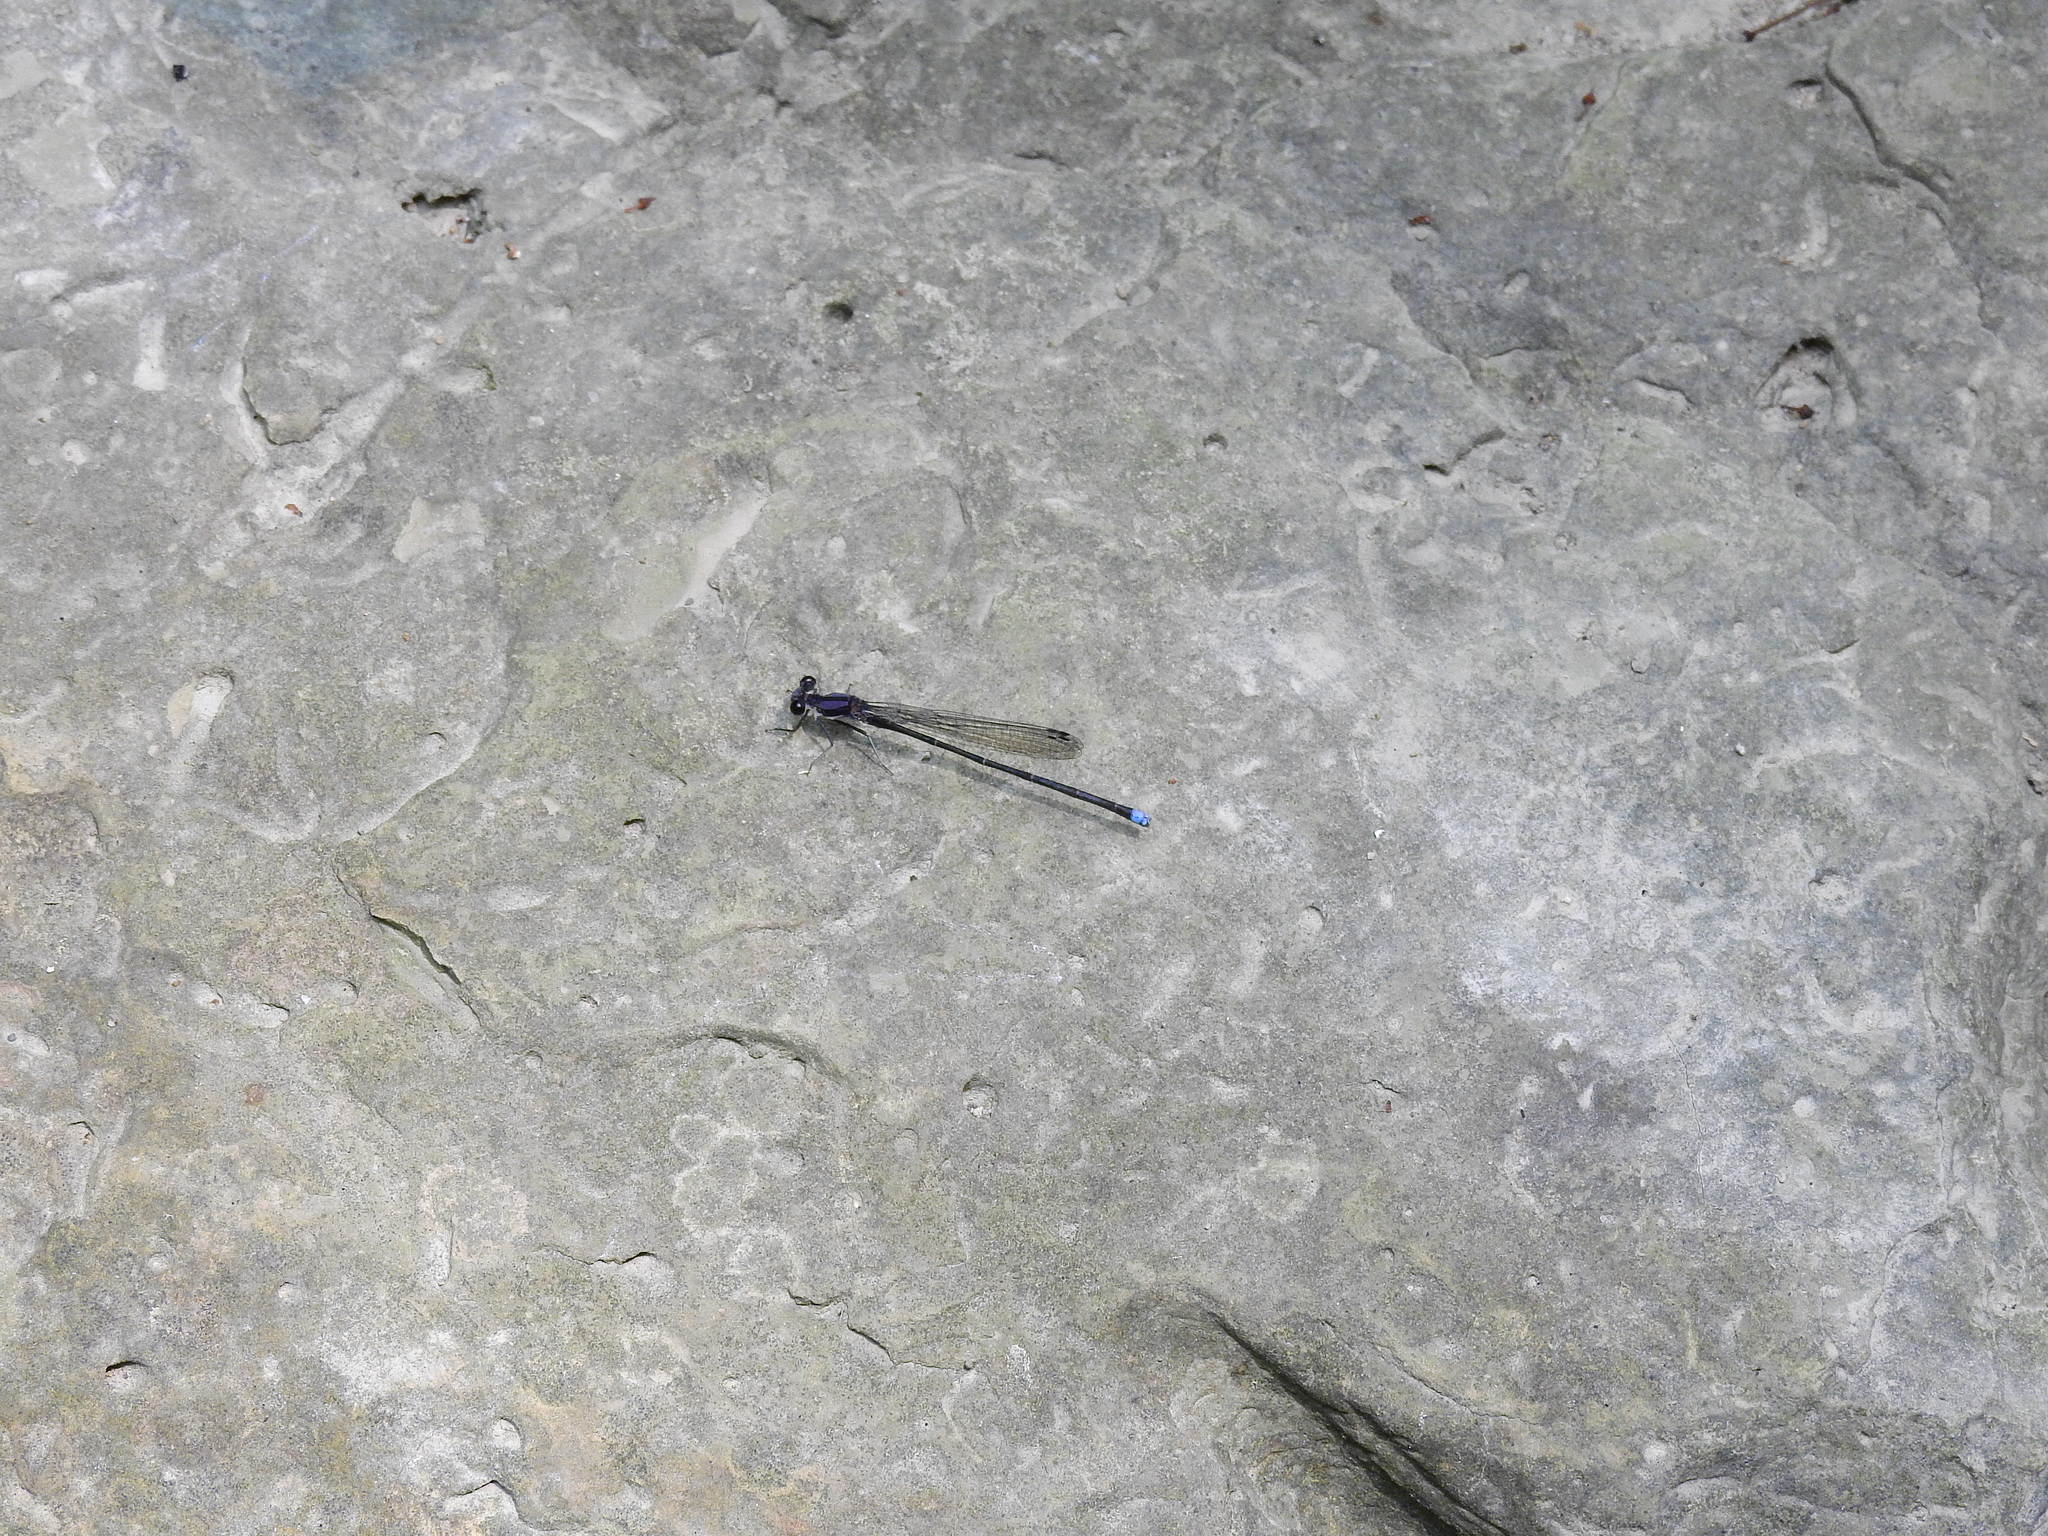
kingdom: Animalia
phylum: Arthropoda
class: Insecta
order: Odonata
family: Coenagrionidae
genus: Argia
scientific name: Argia tibialis
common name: Blue-tipped dancer
